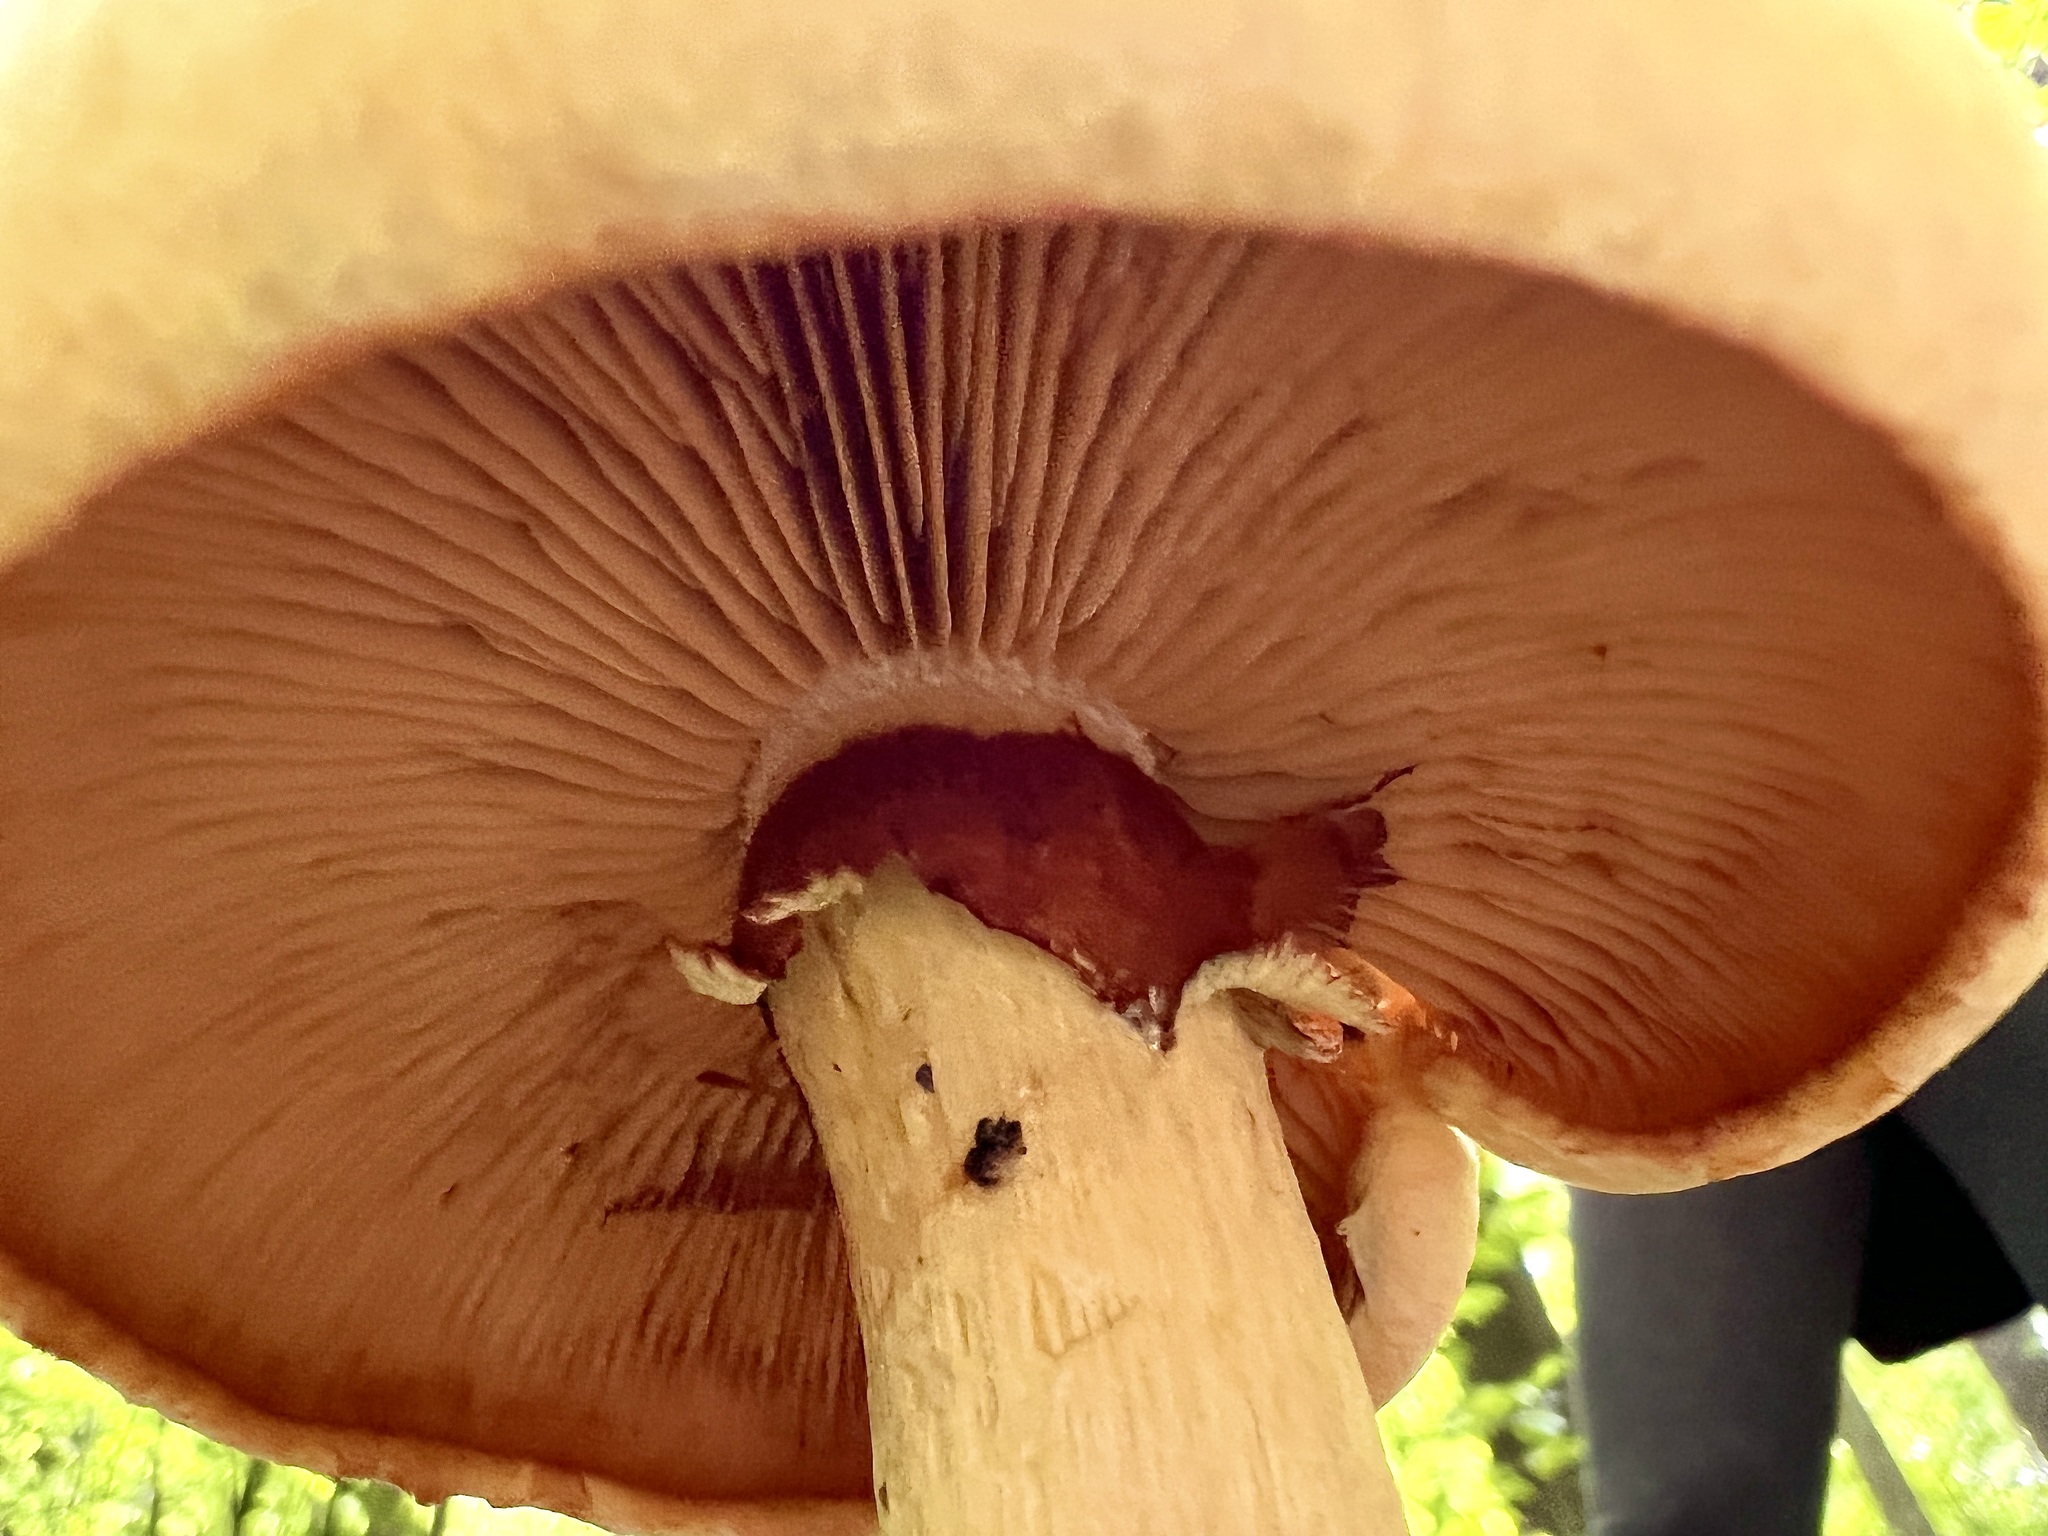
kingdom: Fungi
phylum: Basidiomycota
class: Agaricomycetes
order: Agaricales
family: Hymenogastraceae
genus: Gymnopilus
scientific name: Gymnopilus luteus
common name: Yellow gymnopilus
